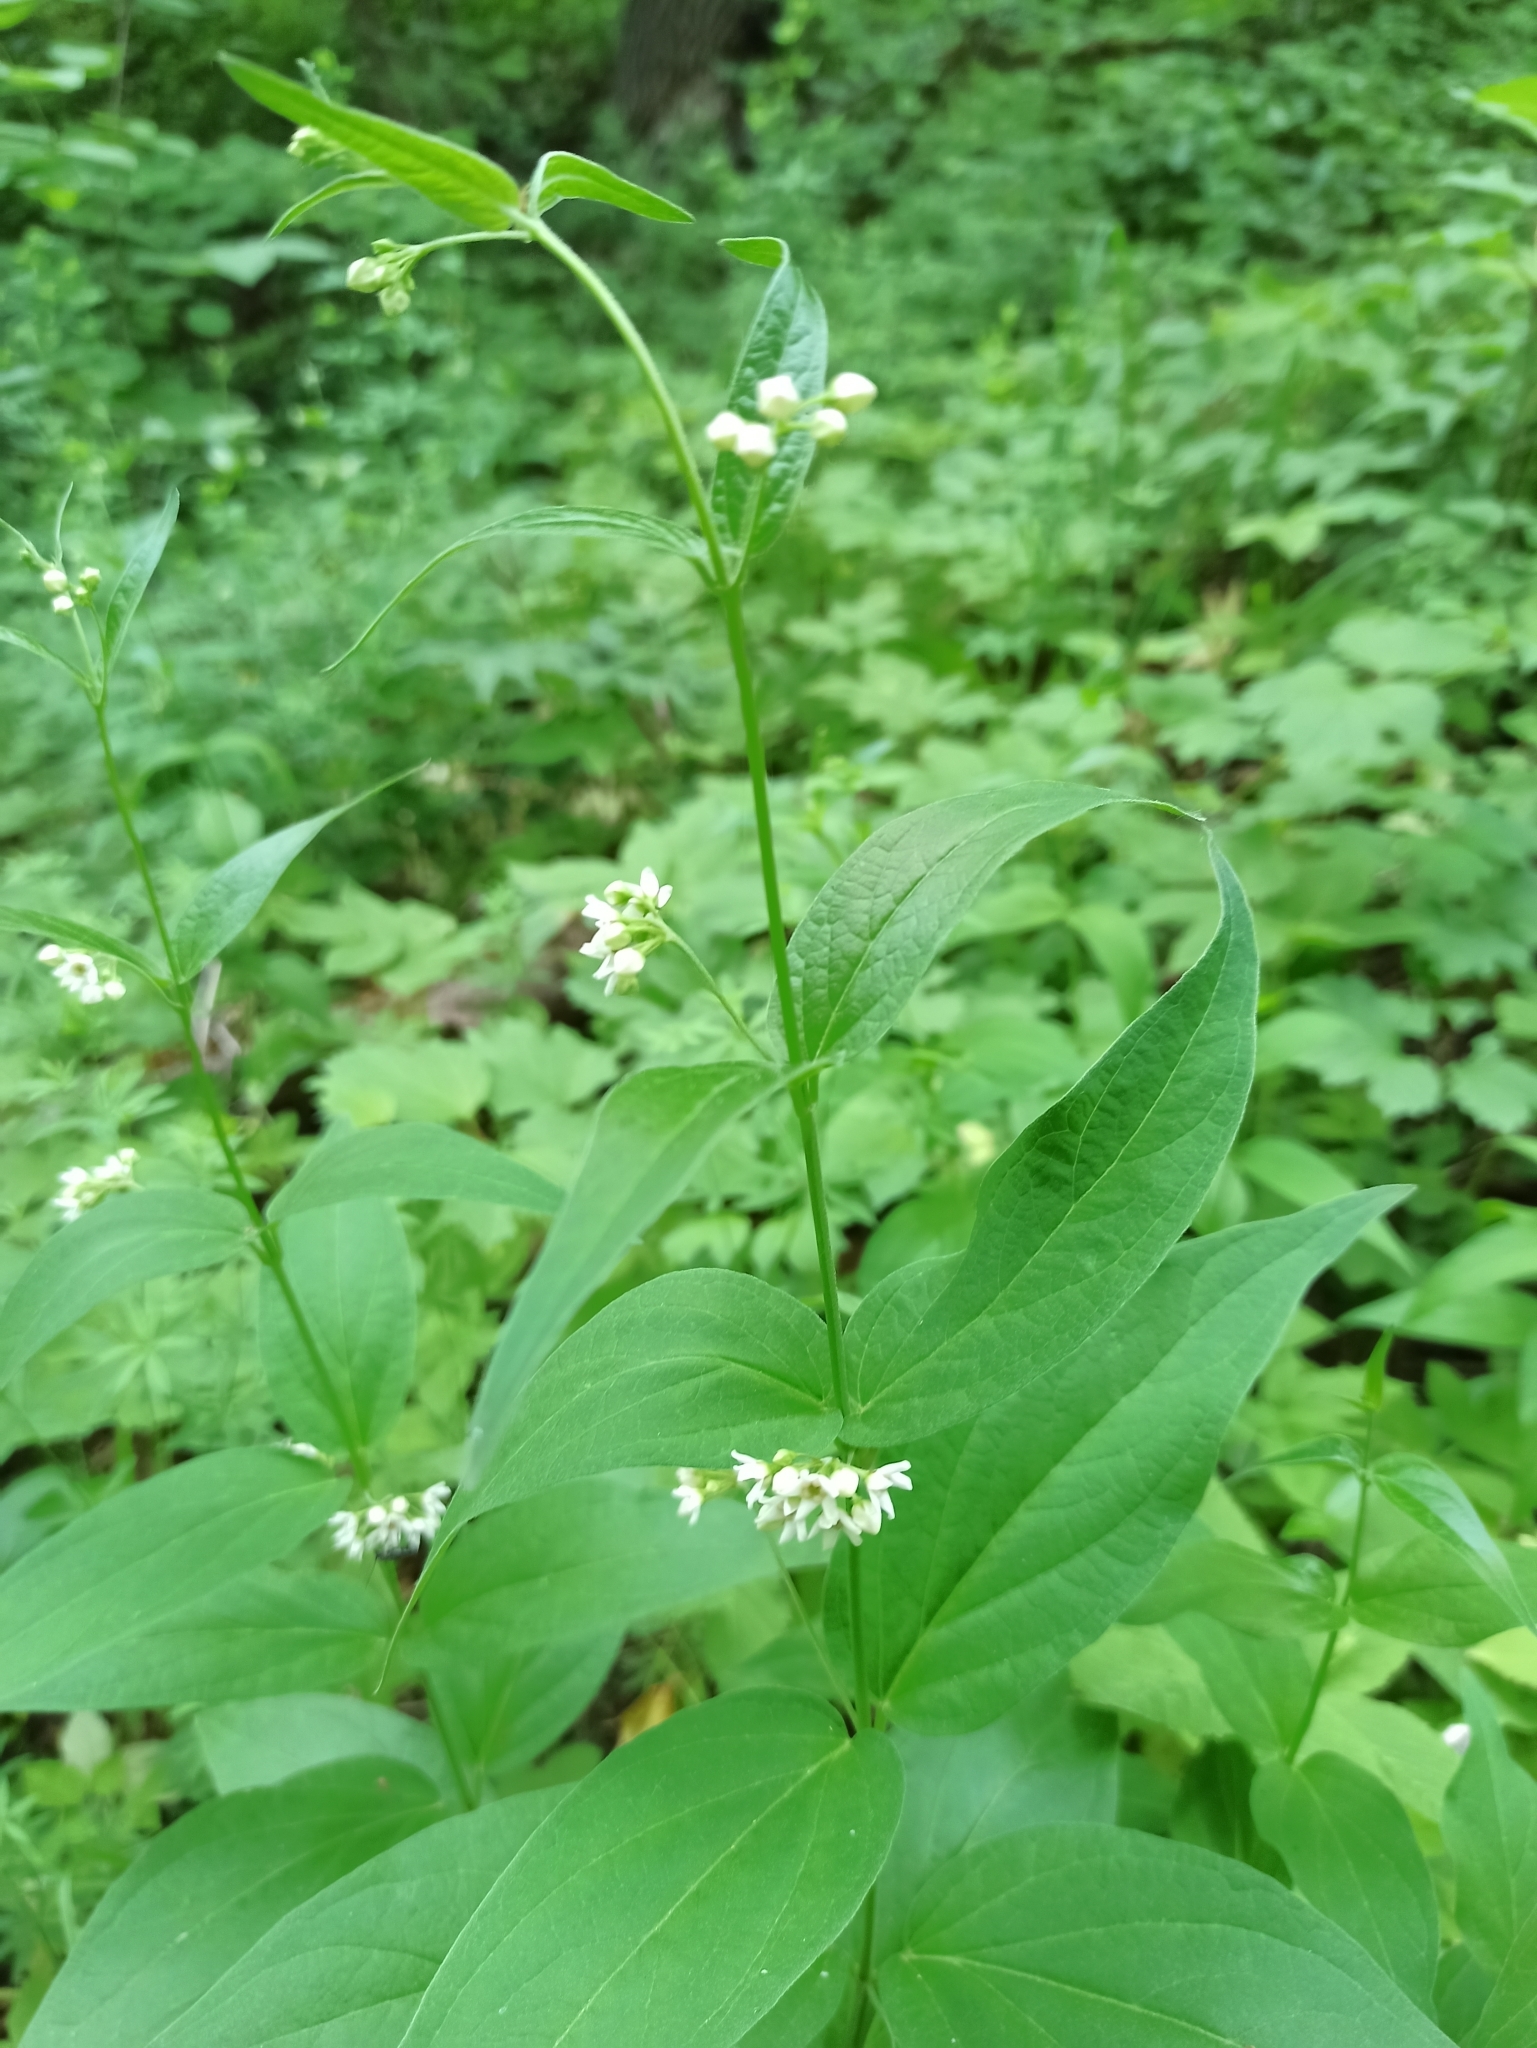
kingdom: Plantae
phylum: Tracheophyta
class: Magnoliopsida
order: Gentianales
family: Apocynaceae
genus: Vincetoxicum
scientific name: Vincetoxicum hirundinaria
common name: White swallowwort
